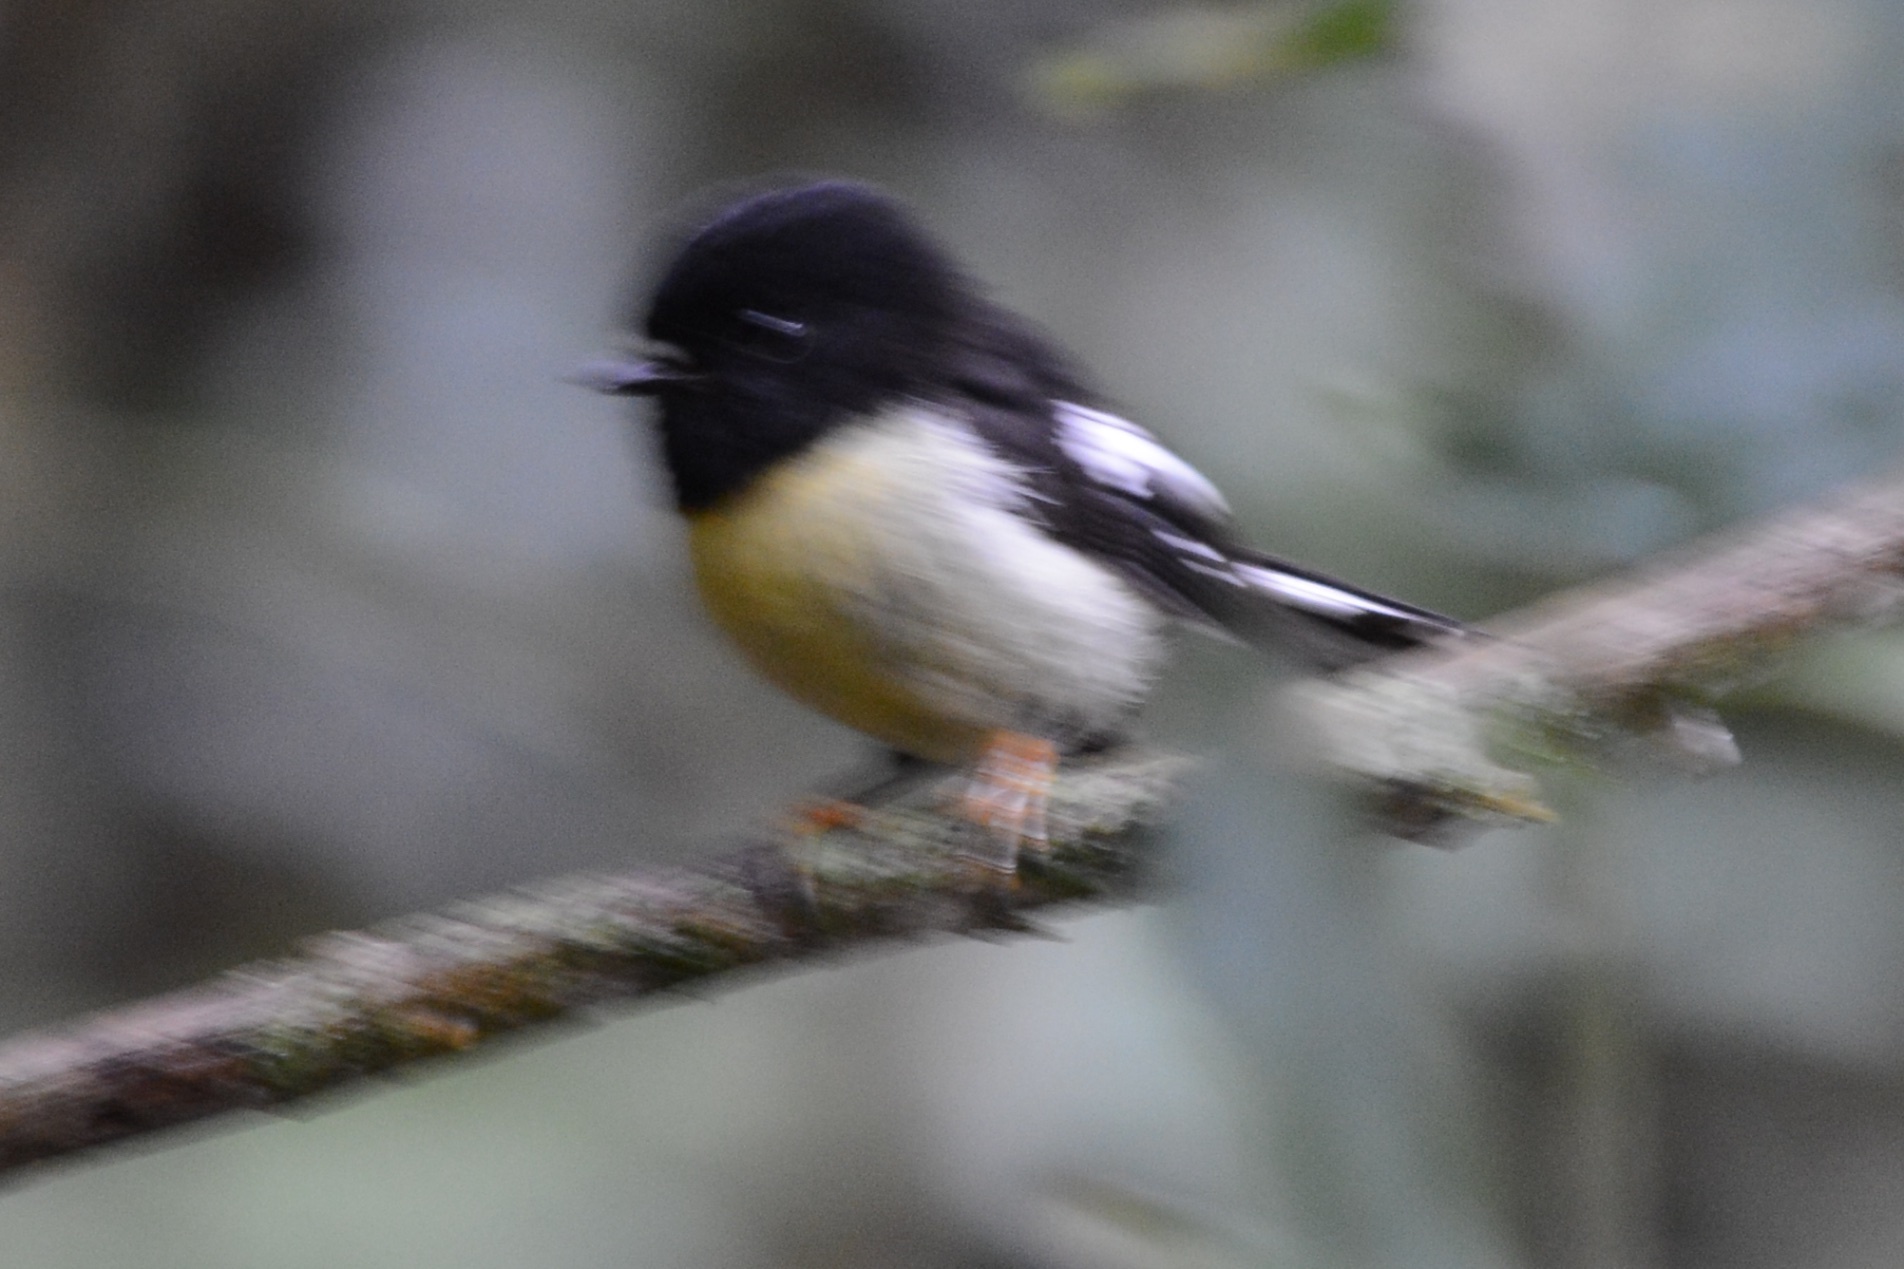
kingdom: Animalia
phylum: Chordata
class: Aves
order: Passeriformes
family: Petroicidae
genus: Petroica
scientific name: Petroica macrocephala
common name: Tomtit
